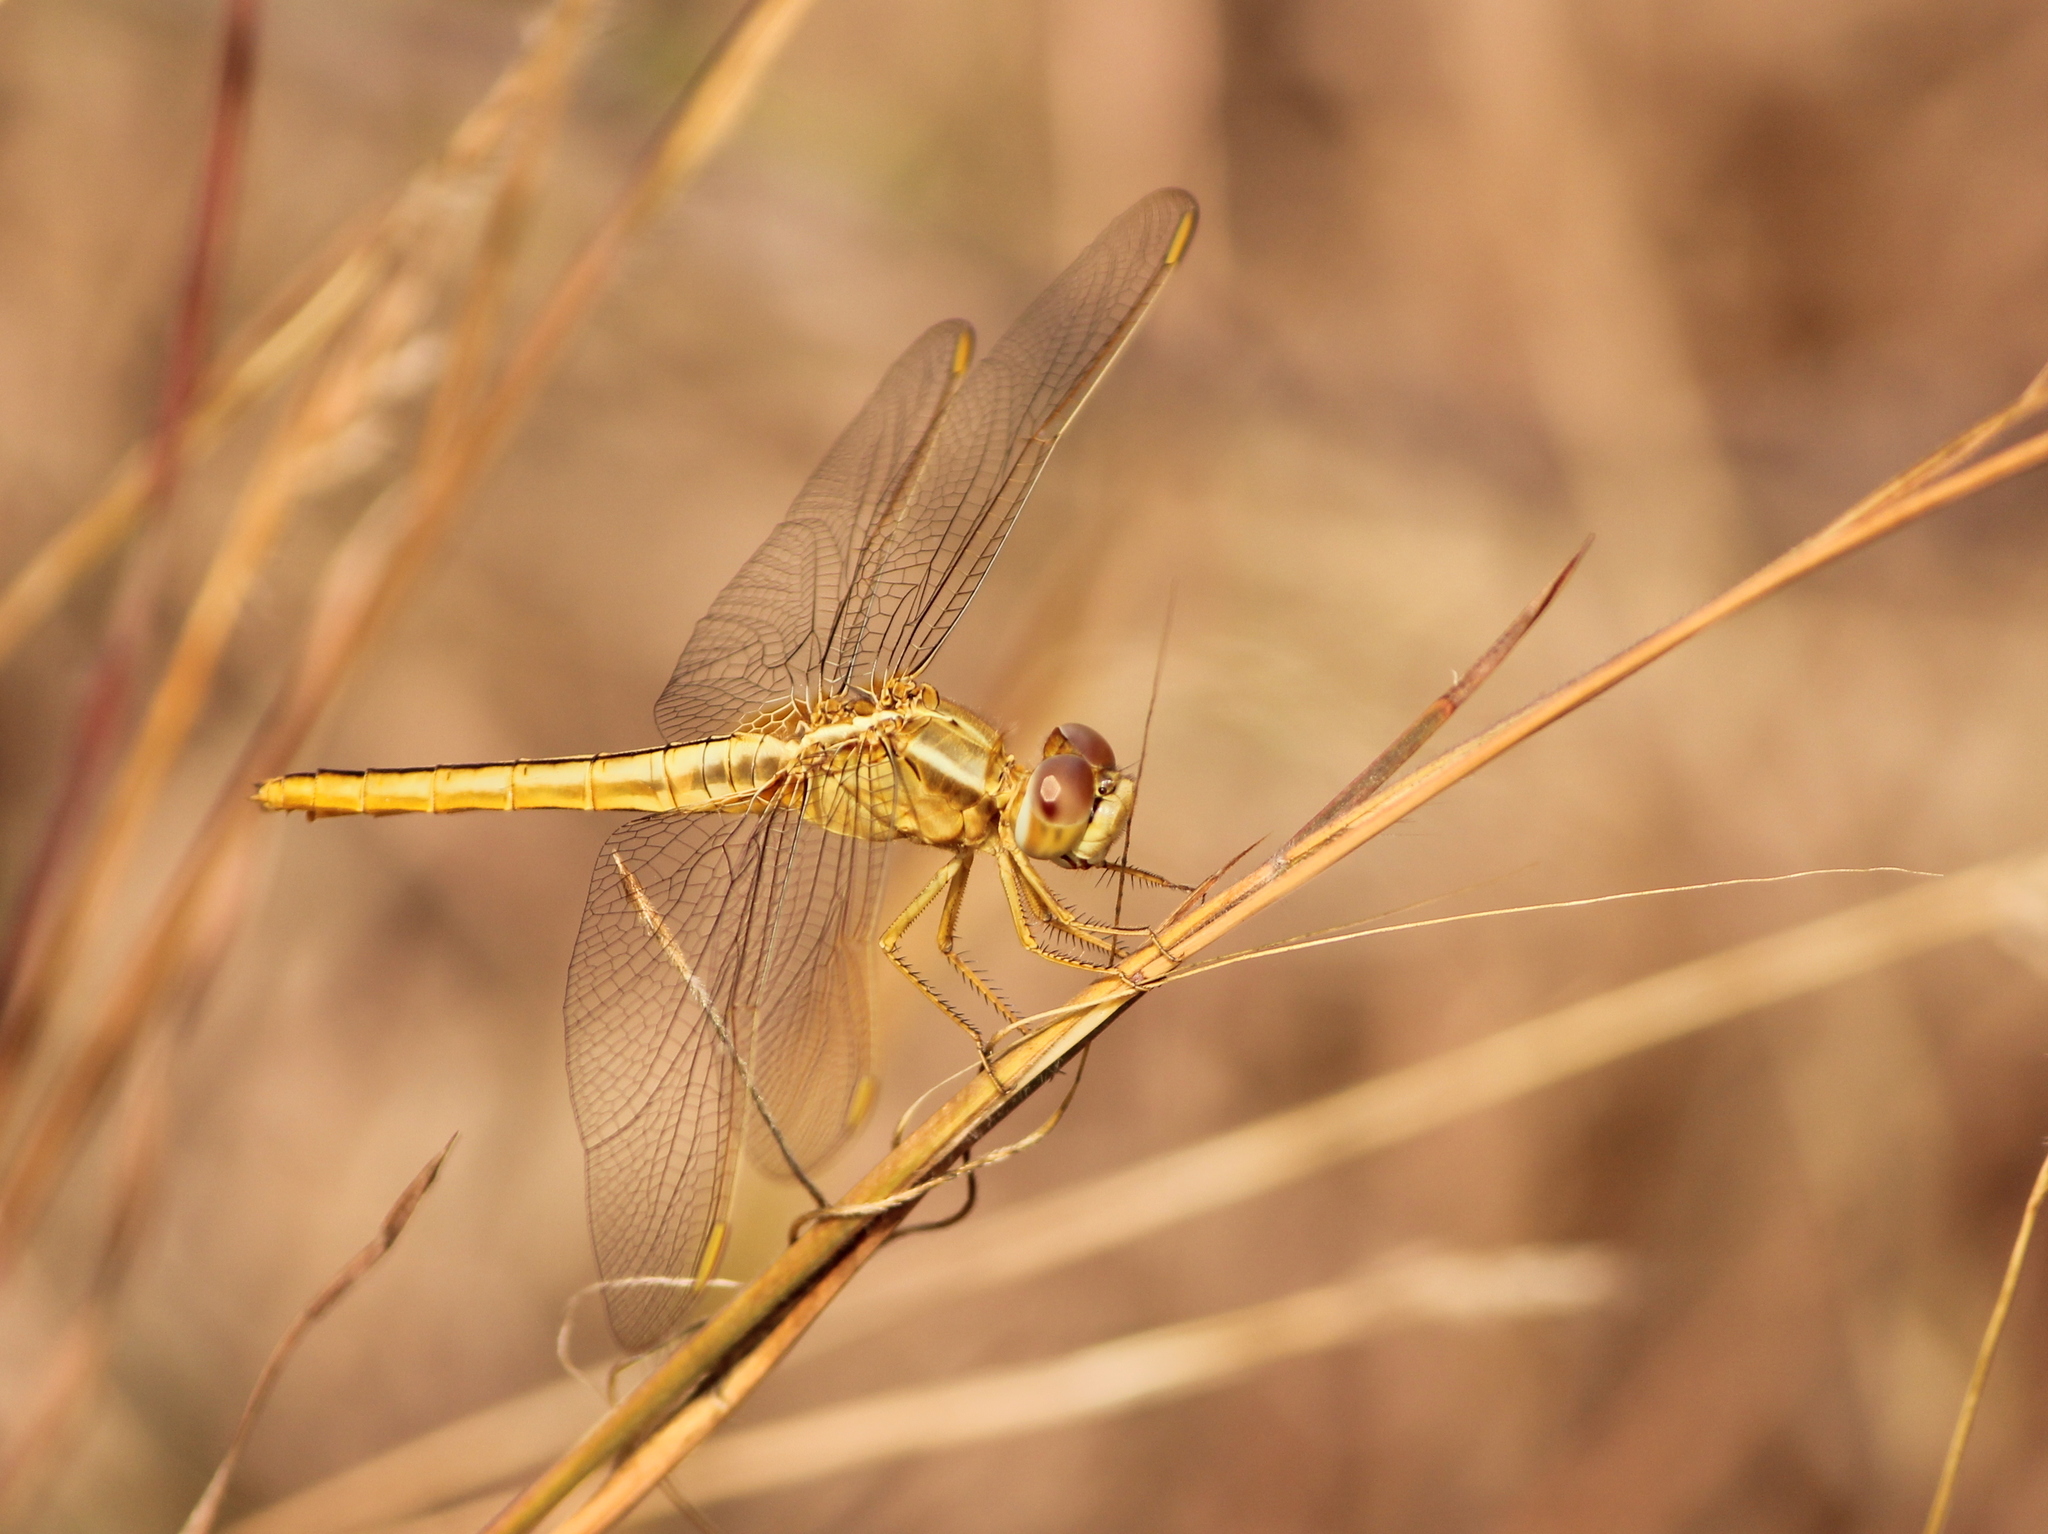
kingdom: Animalia
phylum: Arthropoda
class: Insecta
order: Odonata
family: Libellulidae
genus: Crocothemis
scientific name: Crocothemis servilia
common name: Scarlet skimmer
